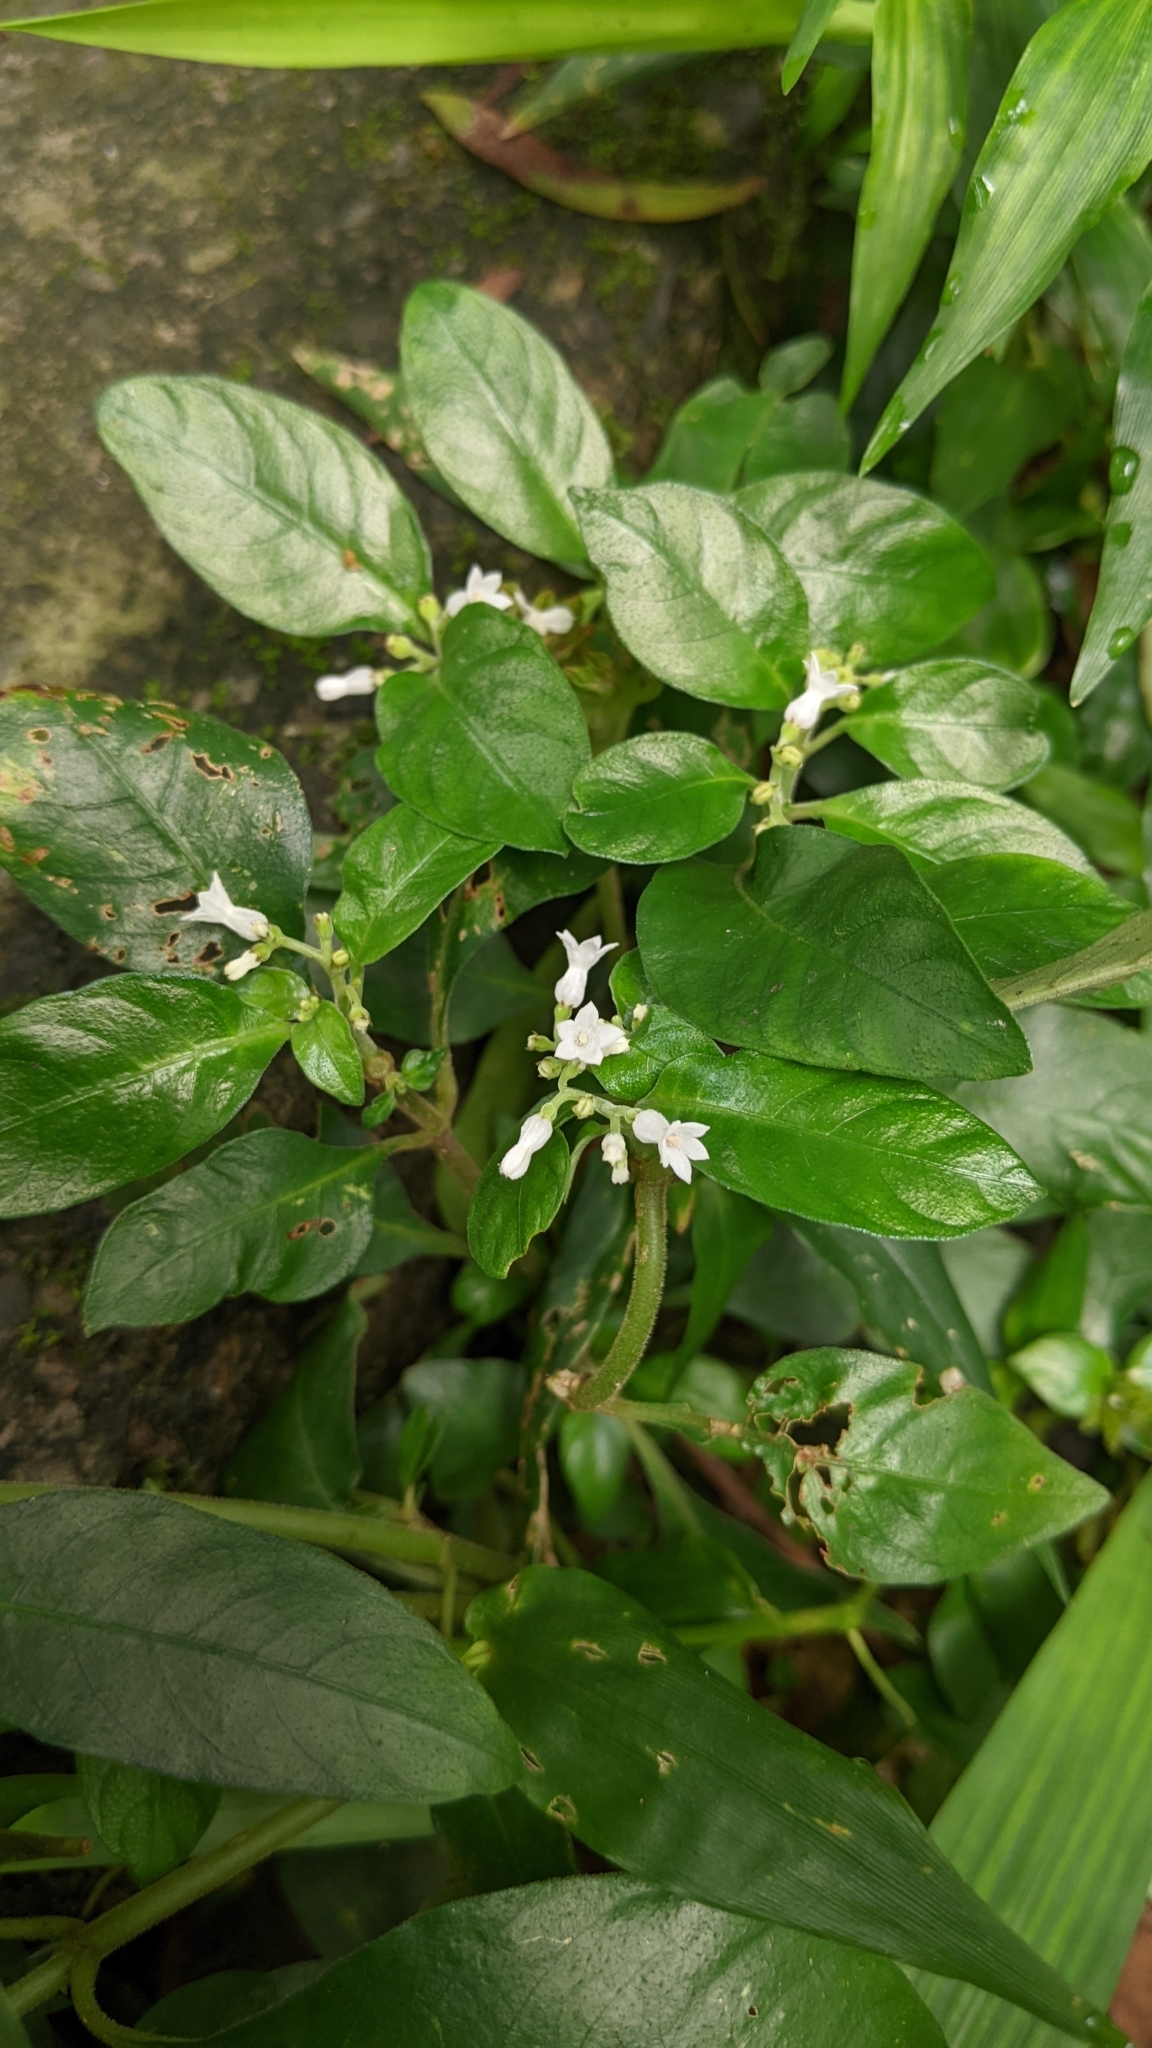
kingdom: Plantae
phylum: Tracheophyta
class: Magnoliopsida
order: Gentianales
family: Rubiaceae
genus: Ophiorrhiza
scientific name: Ophiorrhiza pumila
